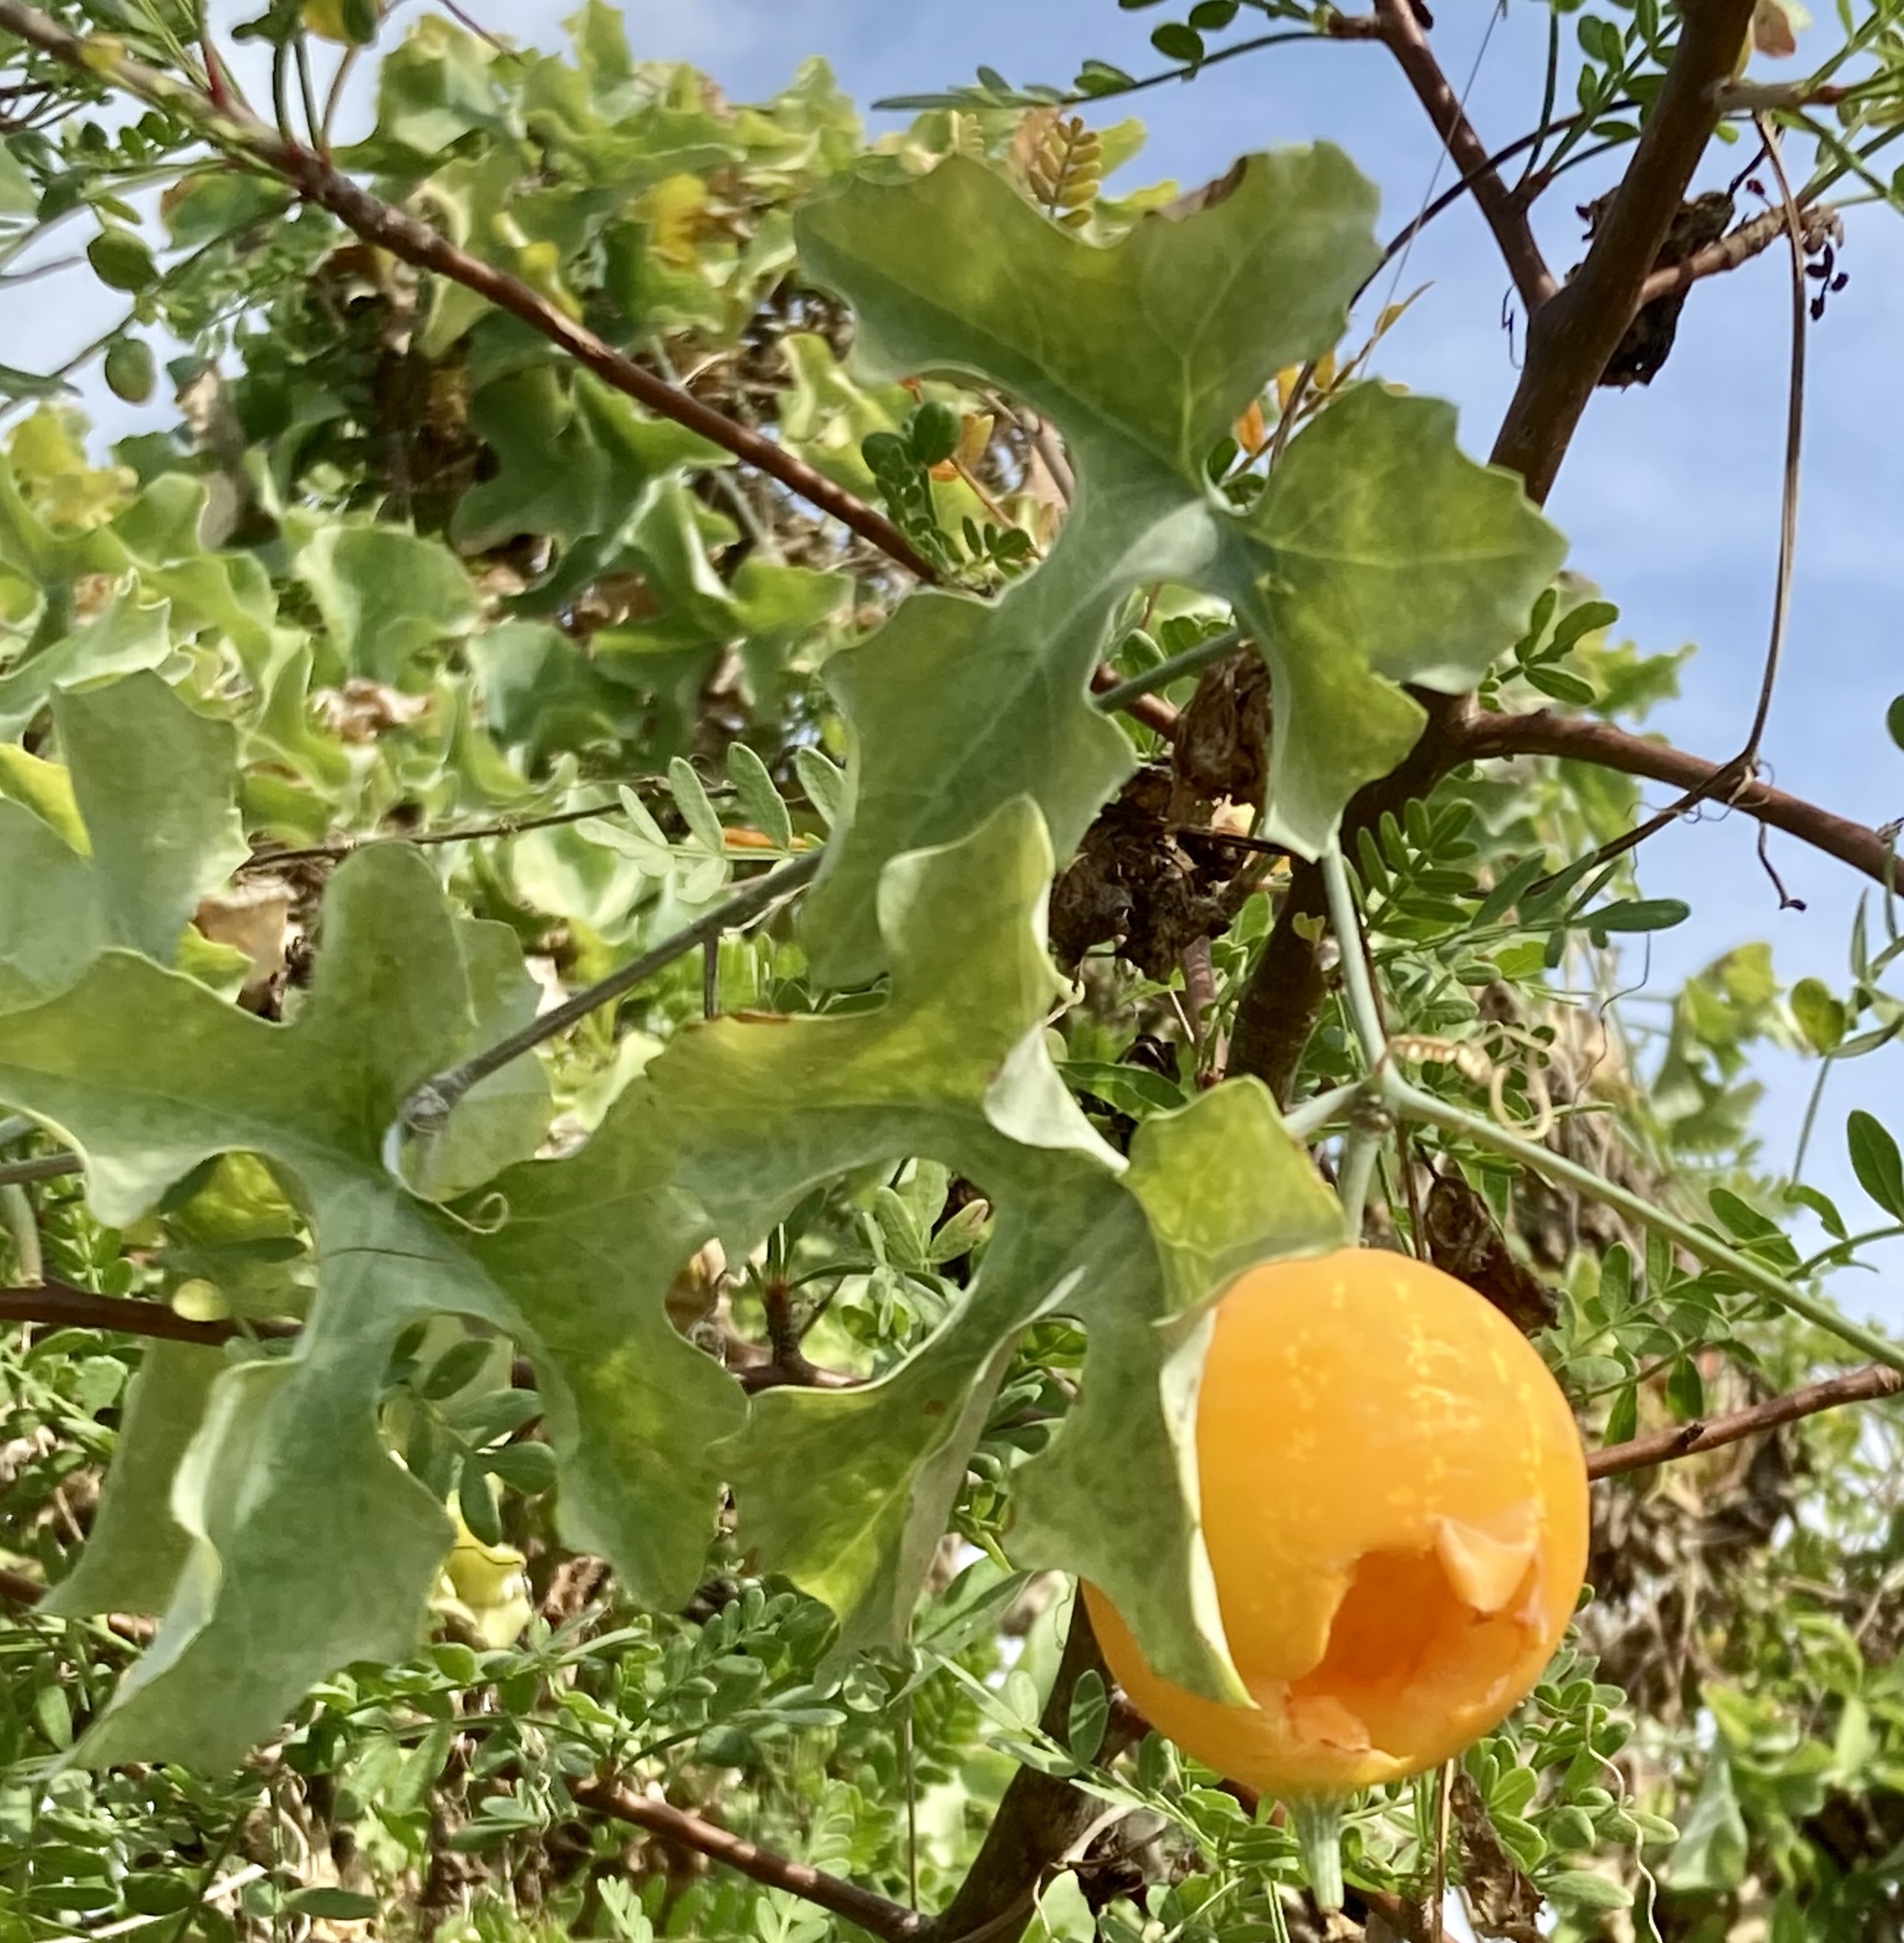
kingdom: Plantae
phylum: Tracheophyta
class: Magnoliopsida
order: Cucurbitales
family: Cucurbitaceae
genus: Ibervillea
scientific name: Ibervillea sonorae
